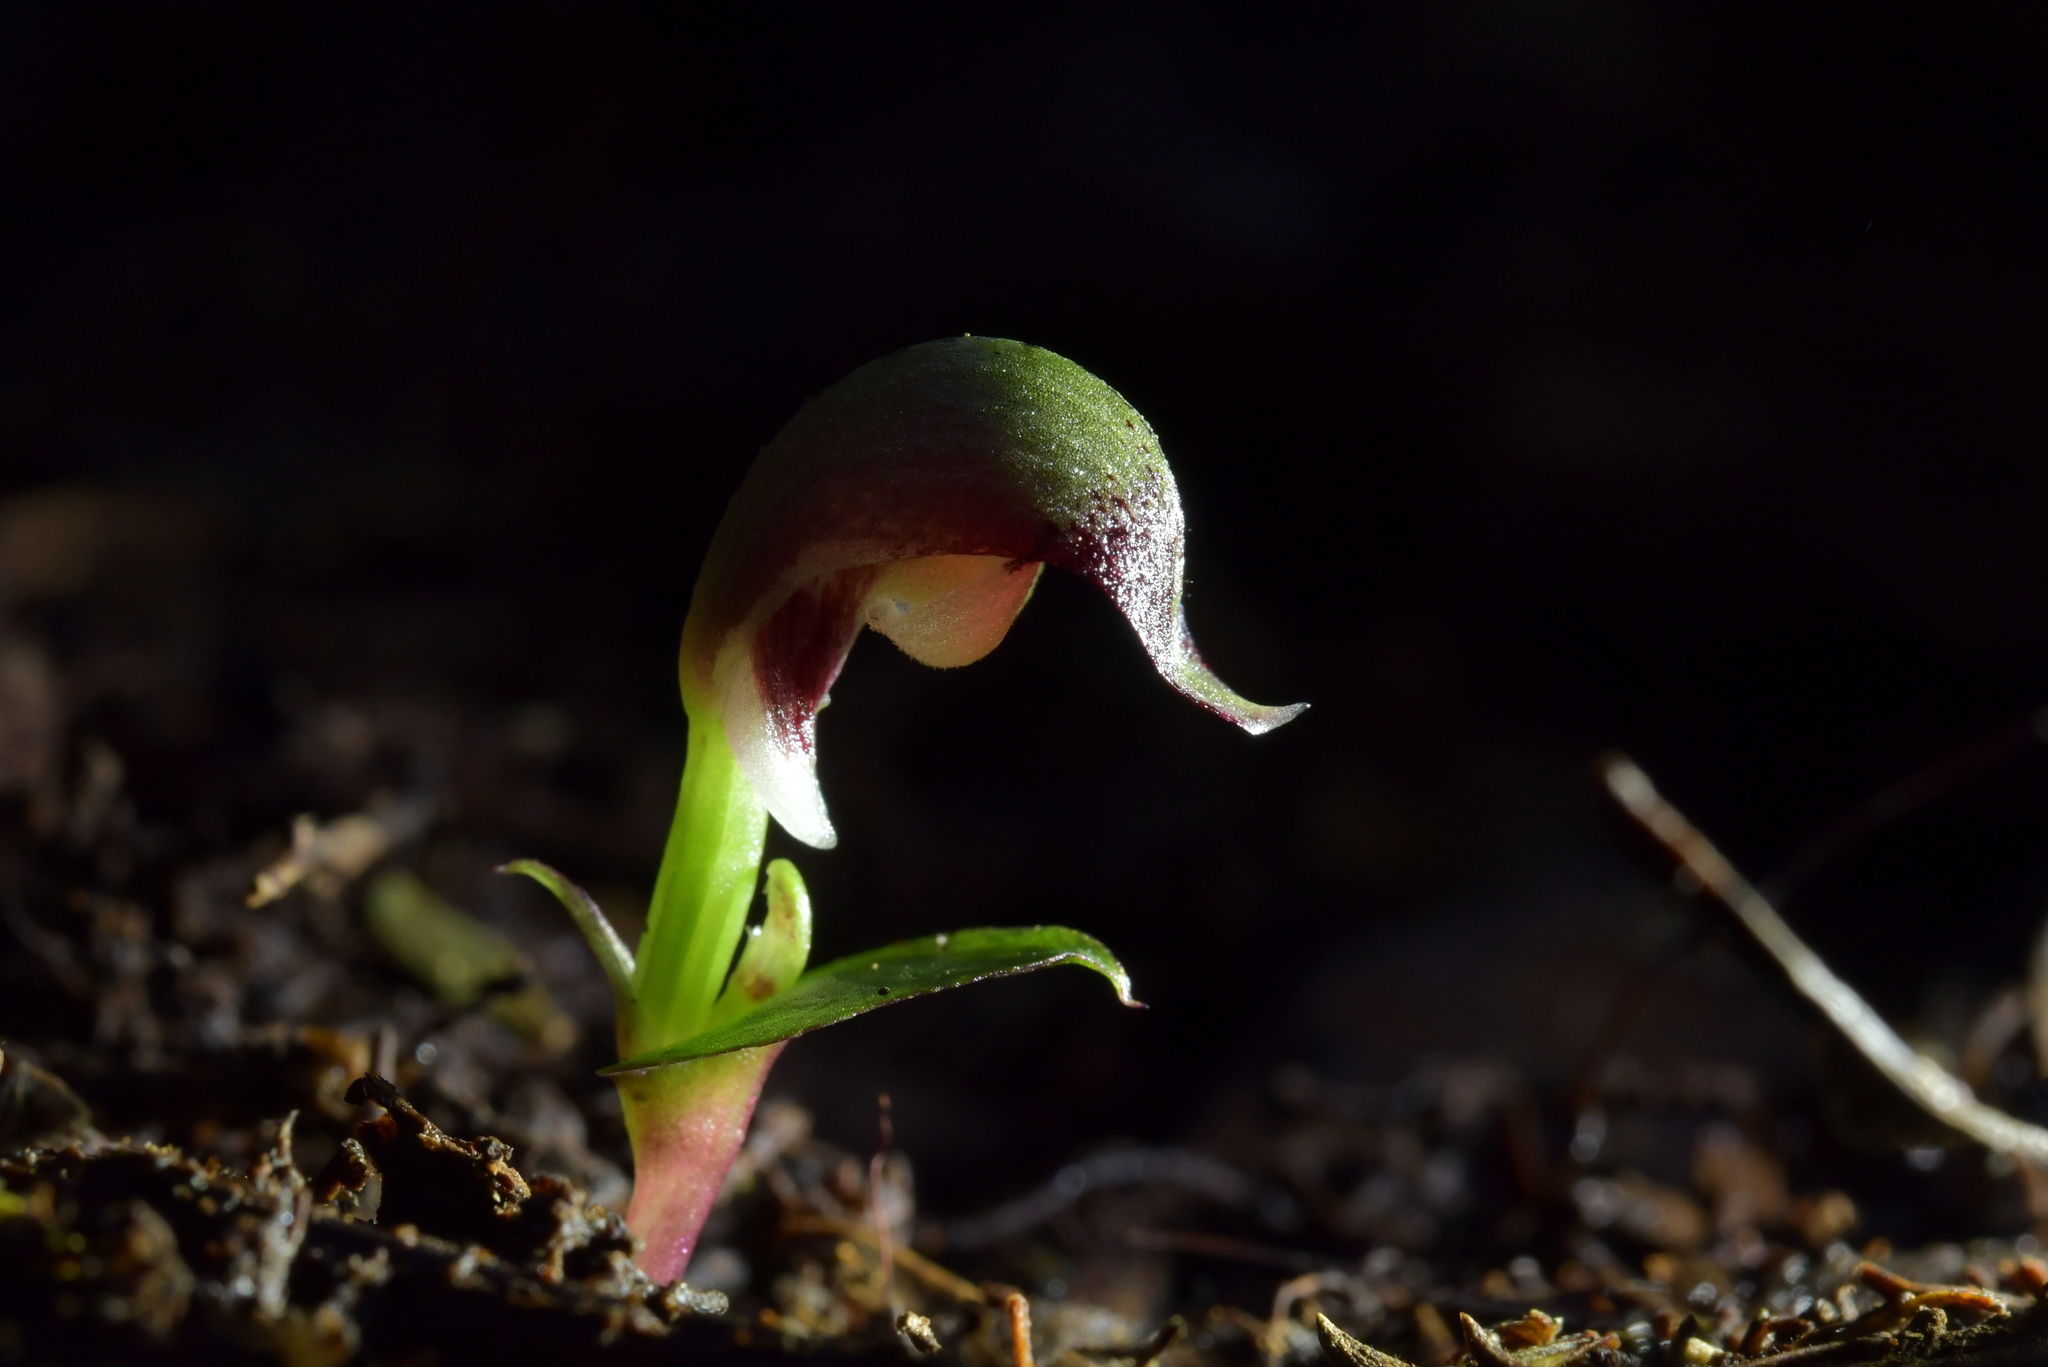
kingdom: Plantae
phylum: Tracheophyta
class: Liliopsida
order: Asparagales
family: Orchidaceae
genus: Corybas
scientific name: Corybas cheesemanii
